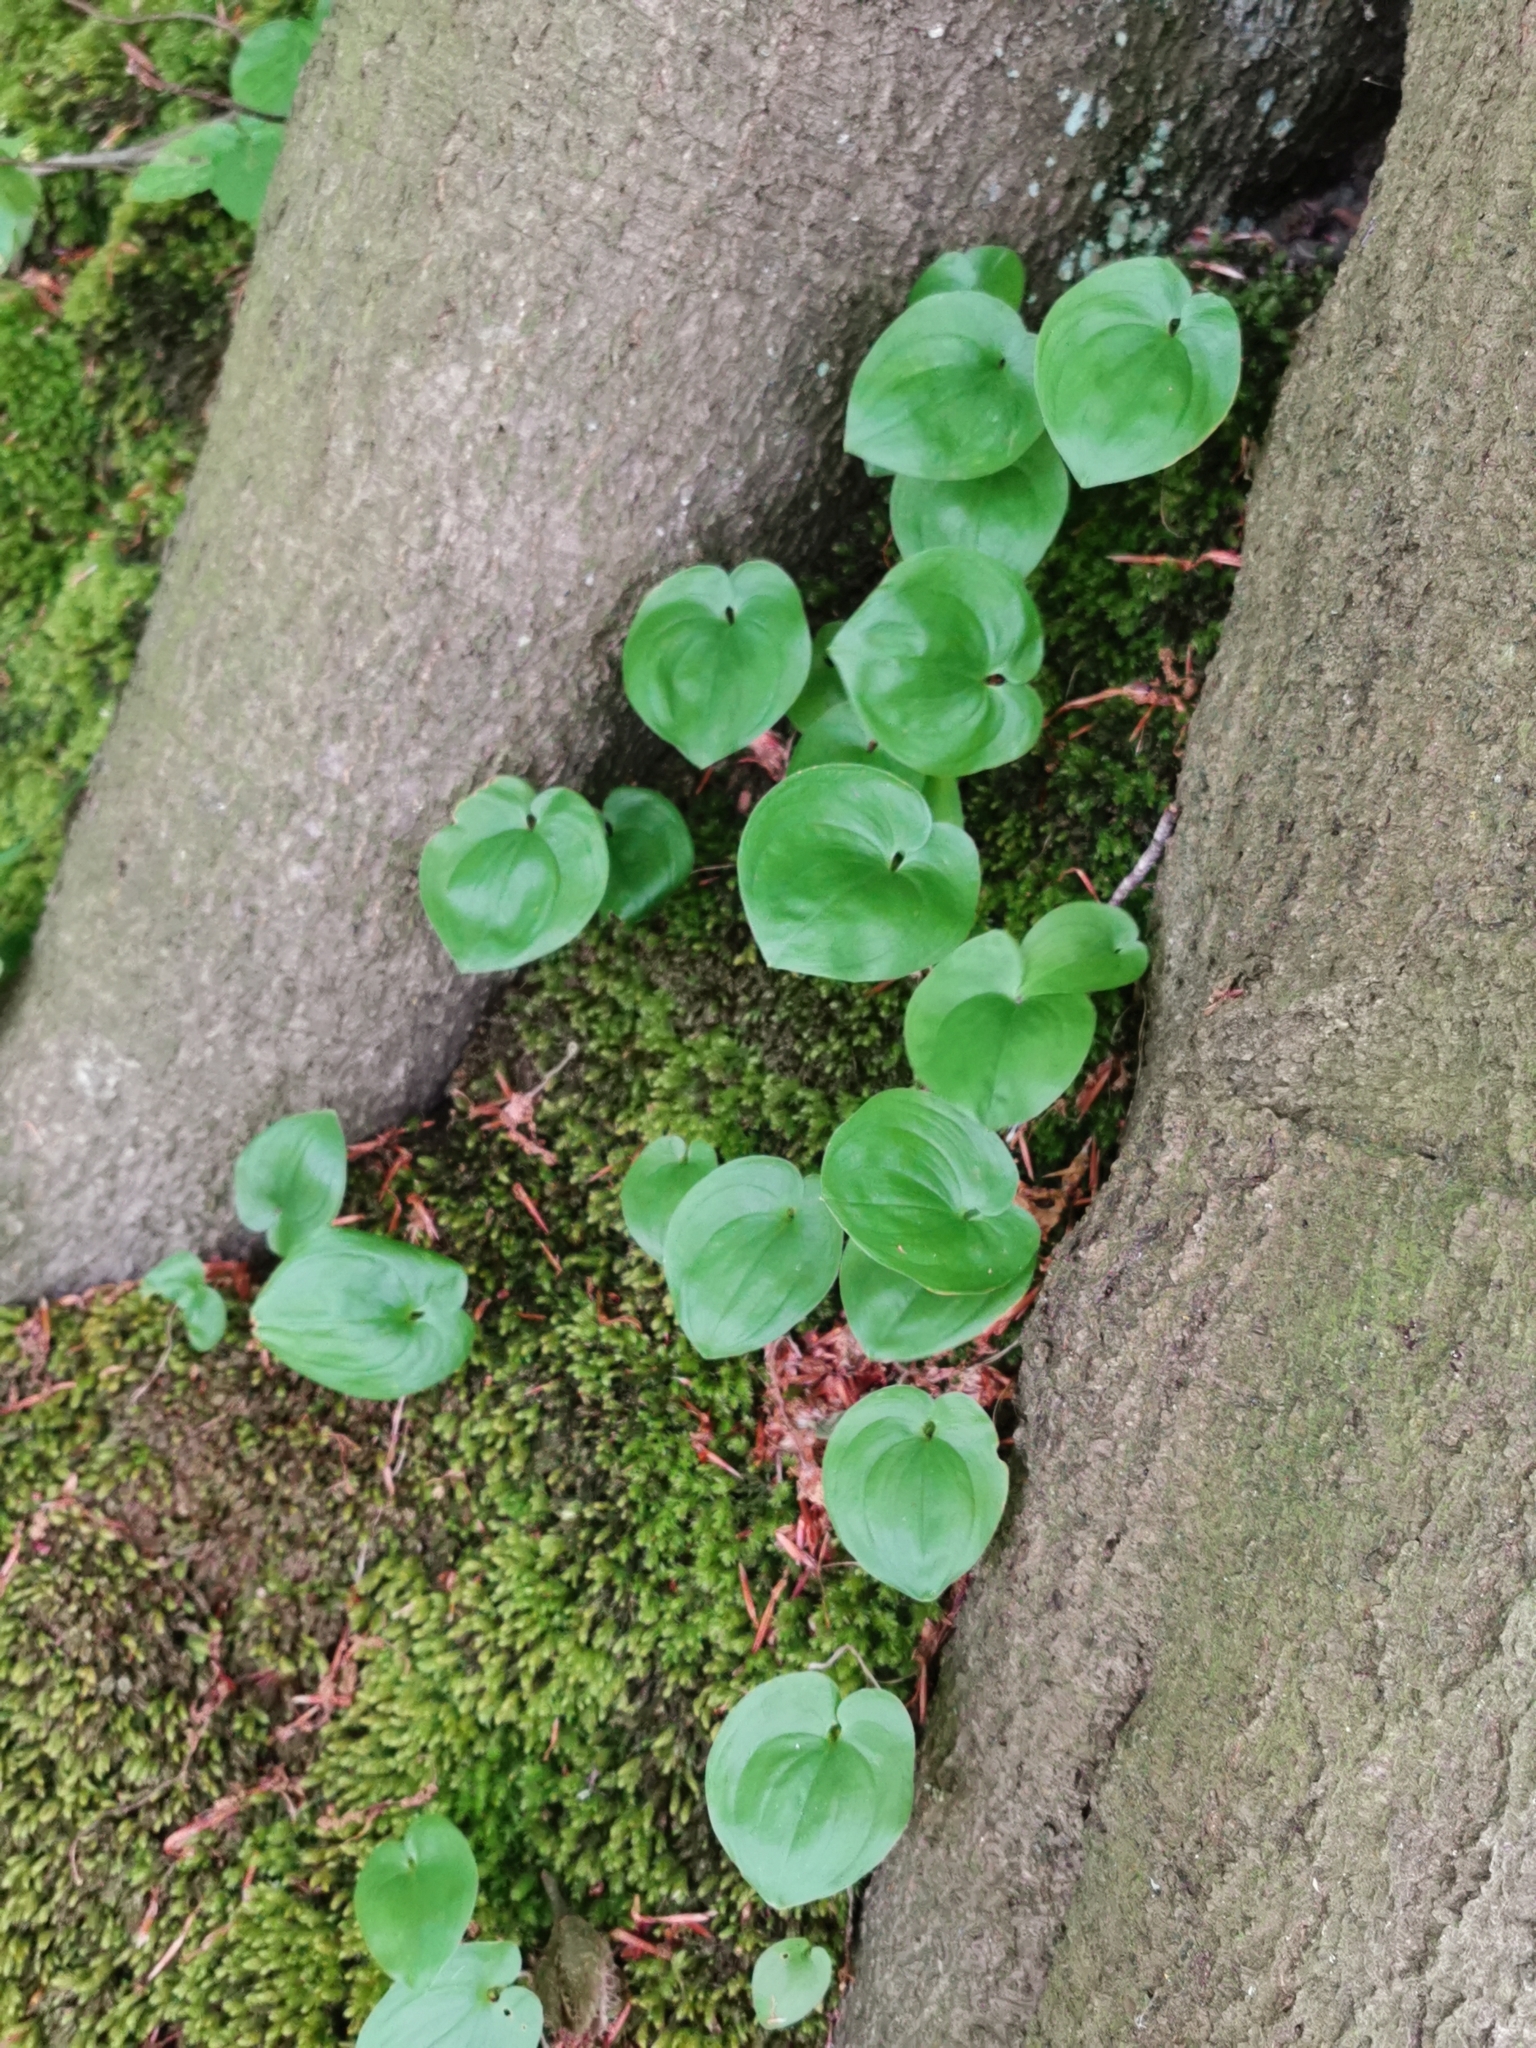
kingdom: Plantae
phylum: Tracheophyta
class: Liliopsida
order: Asparagales
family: Asparagaceae
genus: Maianthemum
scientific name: Maianthemum bifolium
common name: May lily
